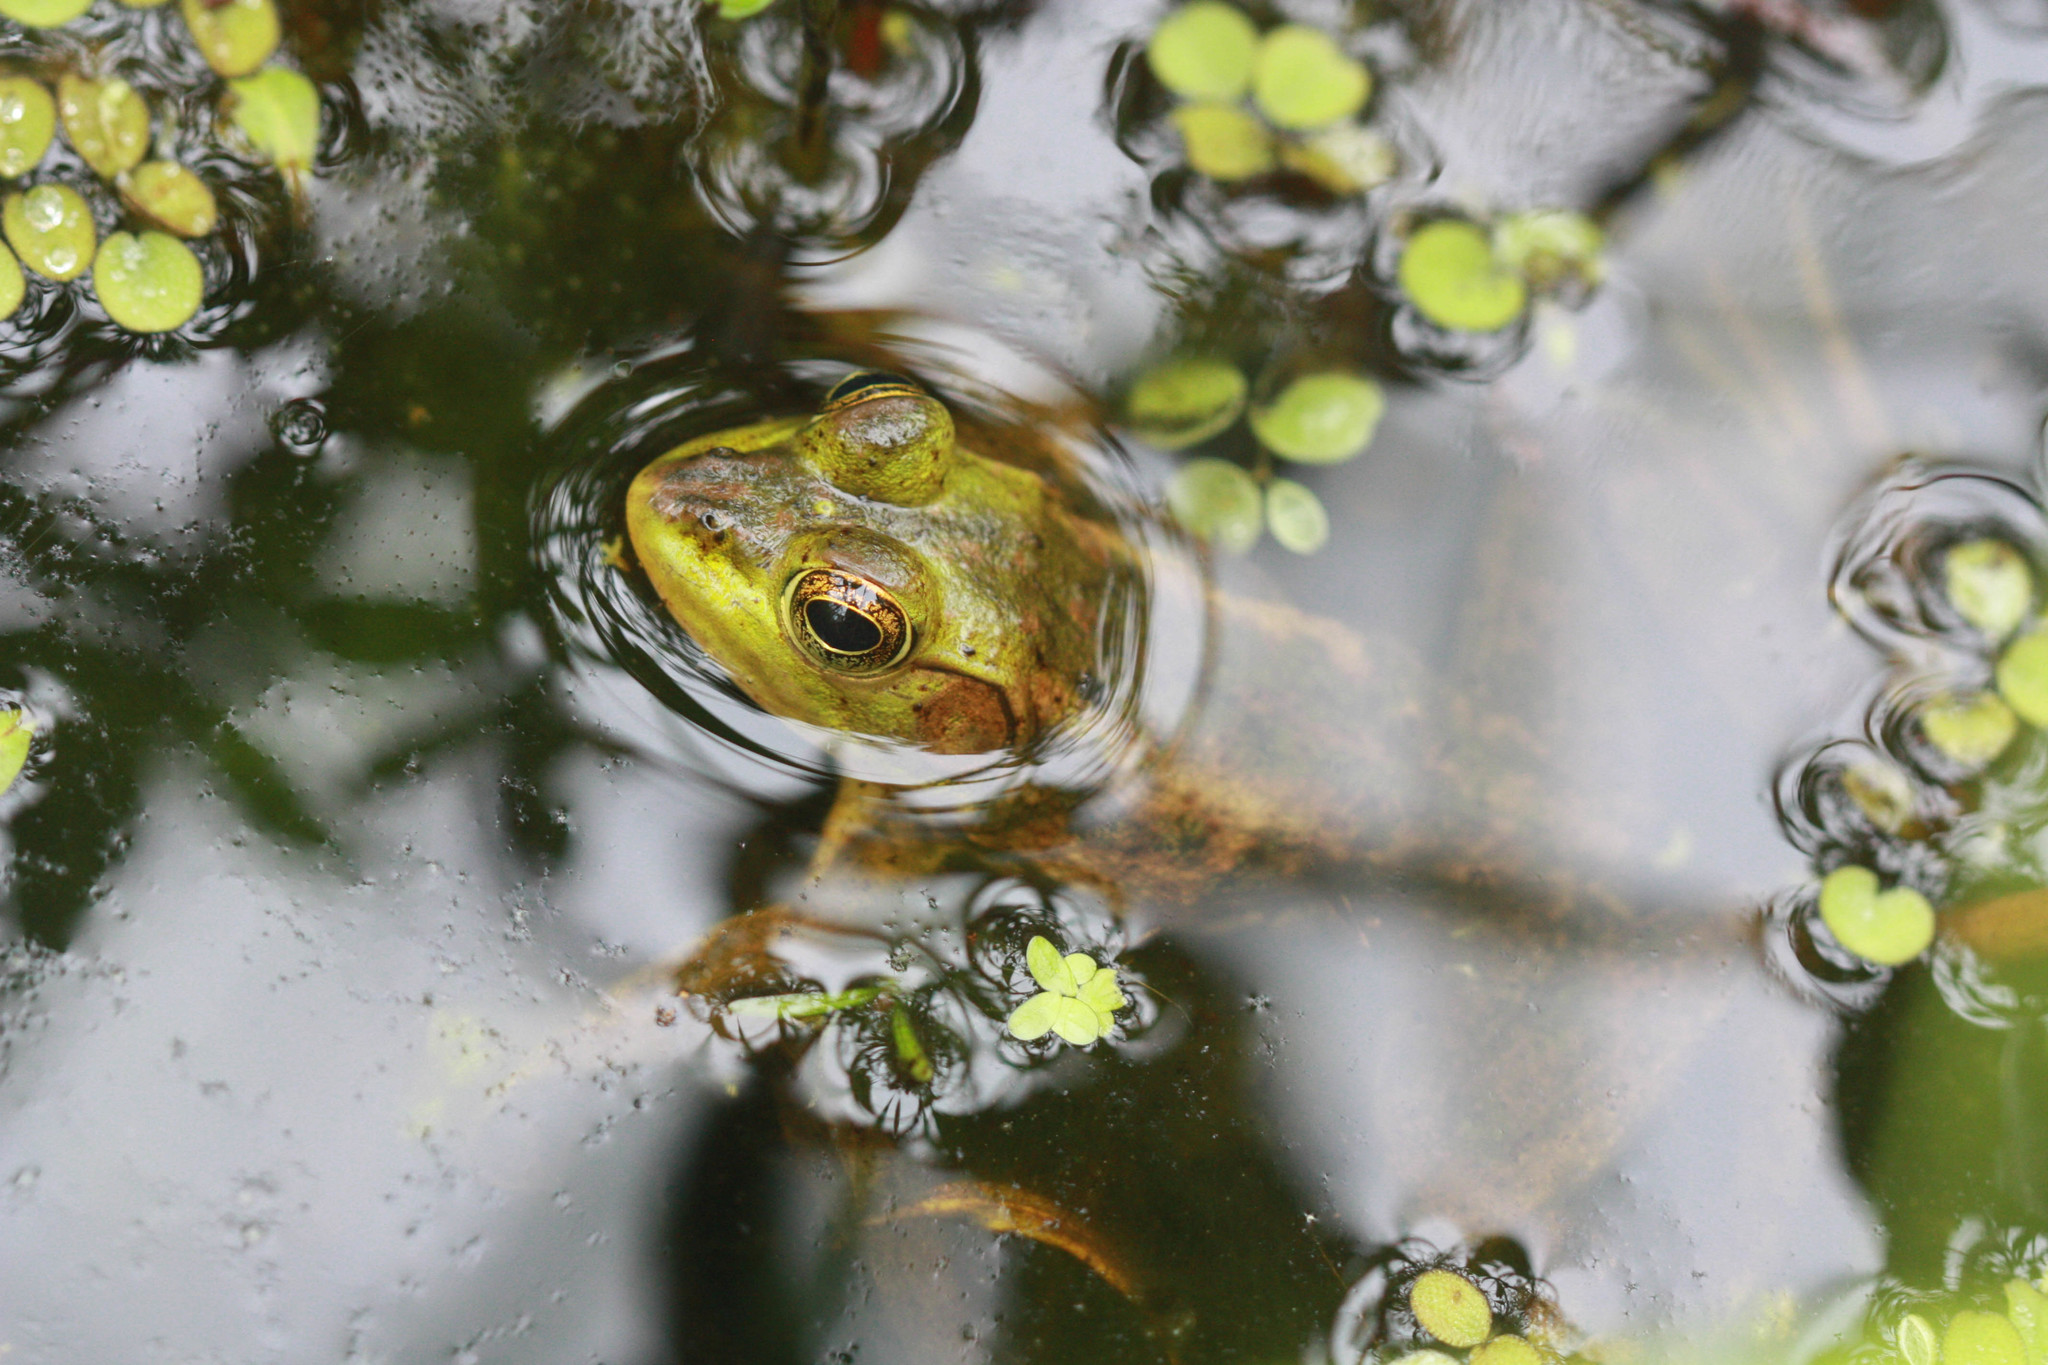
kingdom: Animalia
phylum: Chordata
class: Amphibia
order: Anura
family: Ranidae
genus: Lithobates
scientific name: Lithobates grylio
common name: Pig frog
